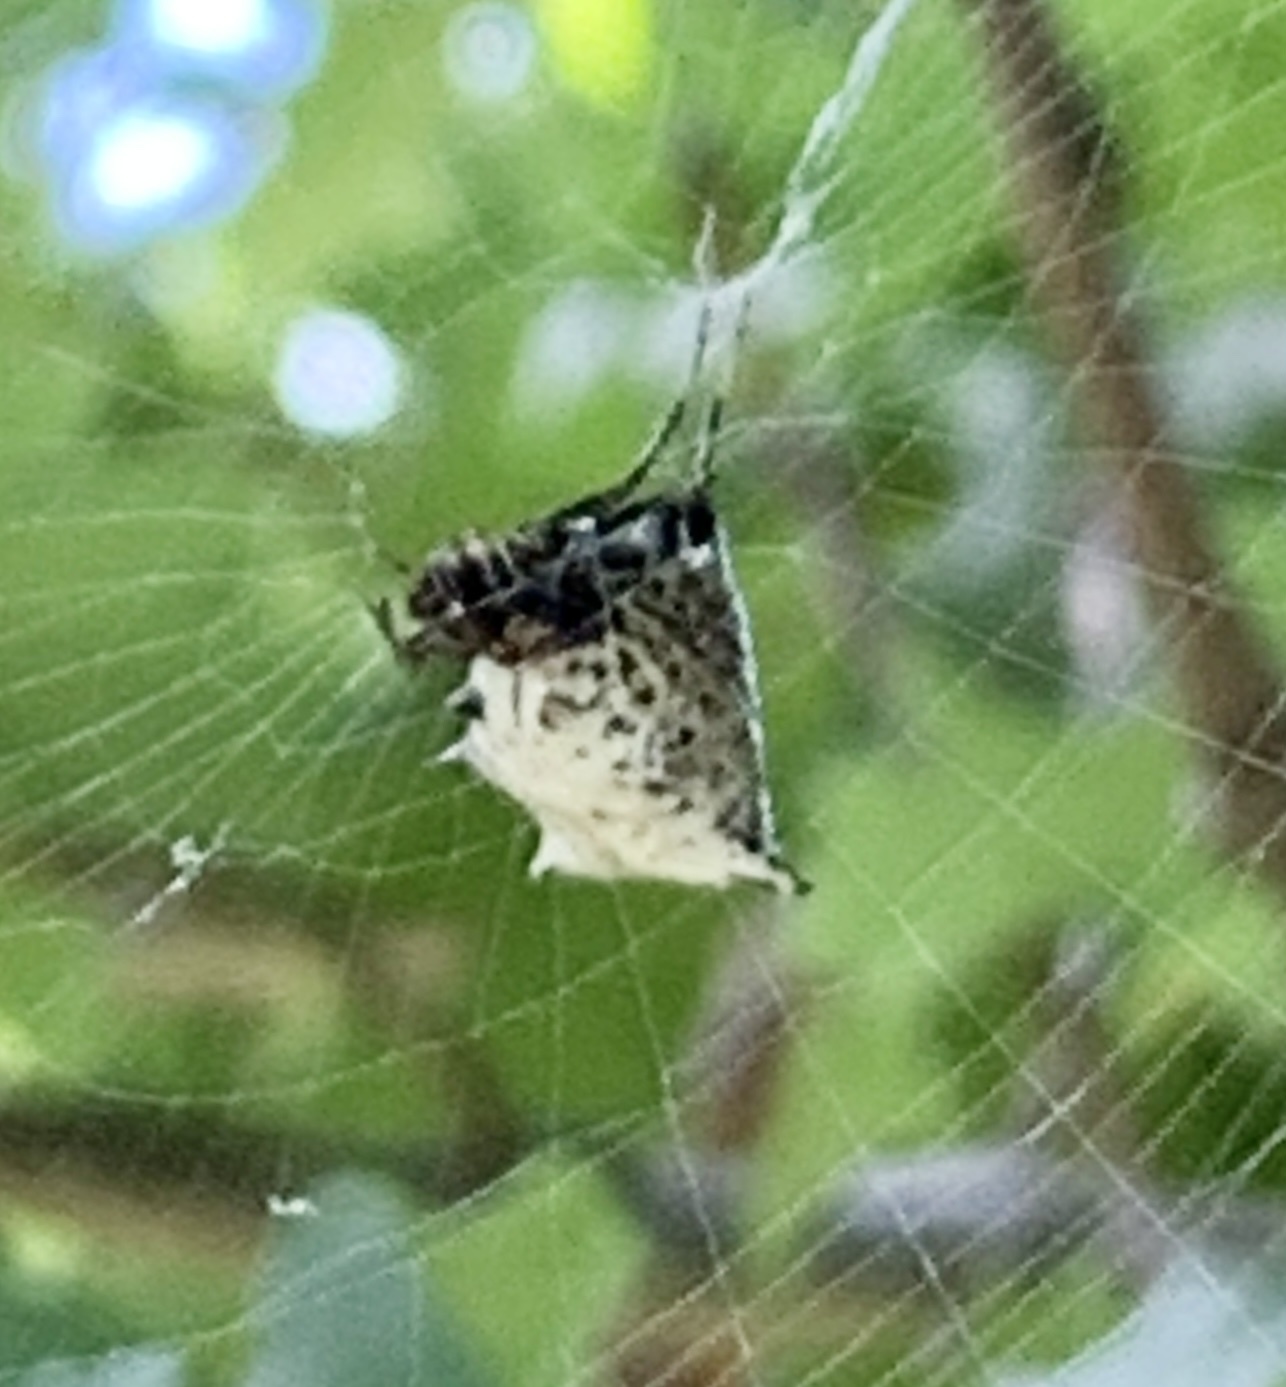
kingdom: Animalia
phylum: Arthropoda
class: Arachnida
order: Araneae
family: Araneidae
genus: Micrathena
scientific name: Micrathena gracilis
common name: Orb weavers
